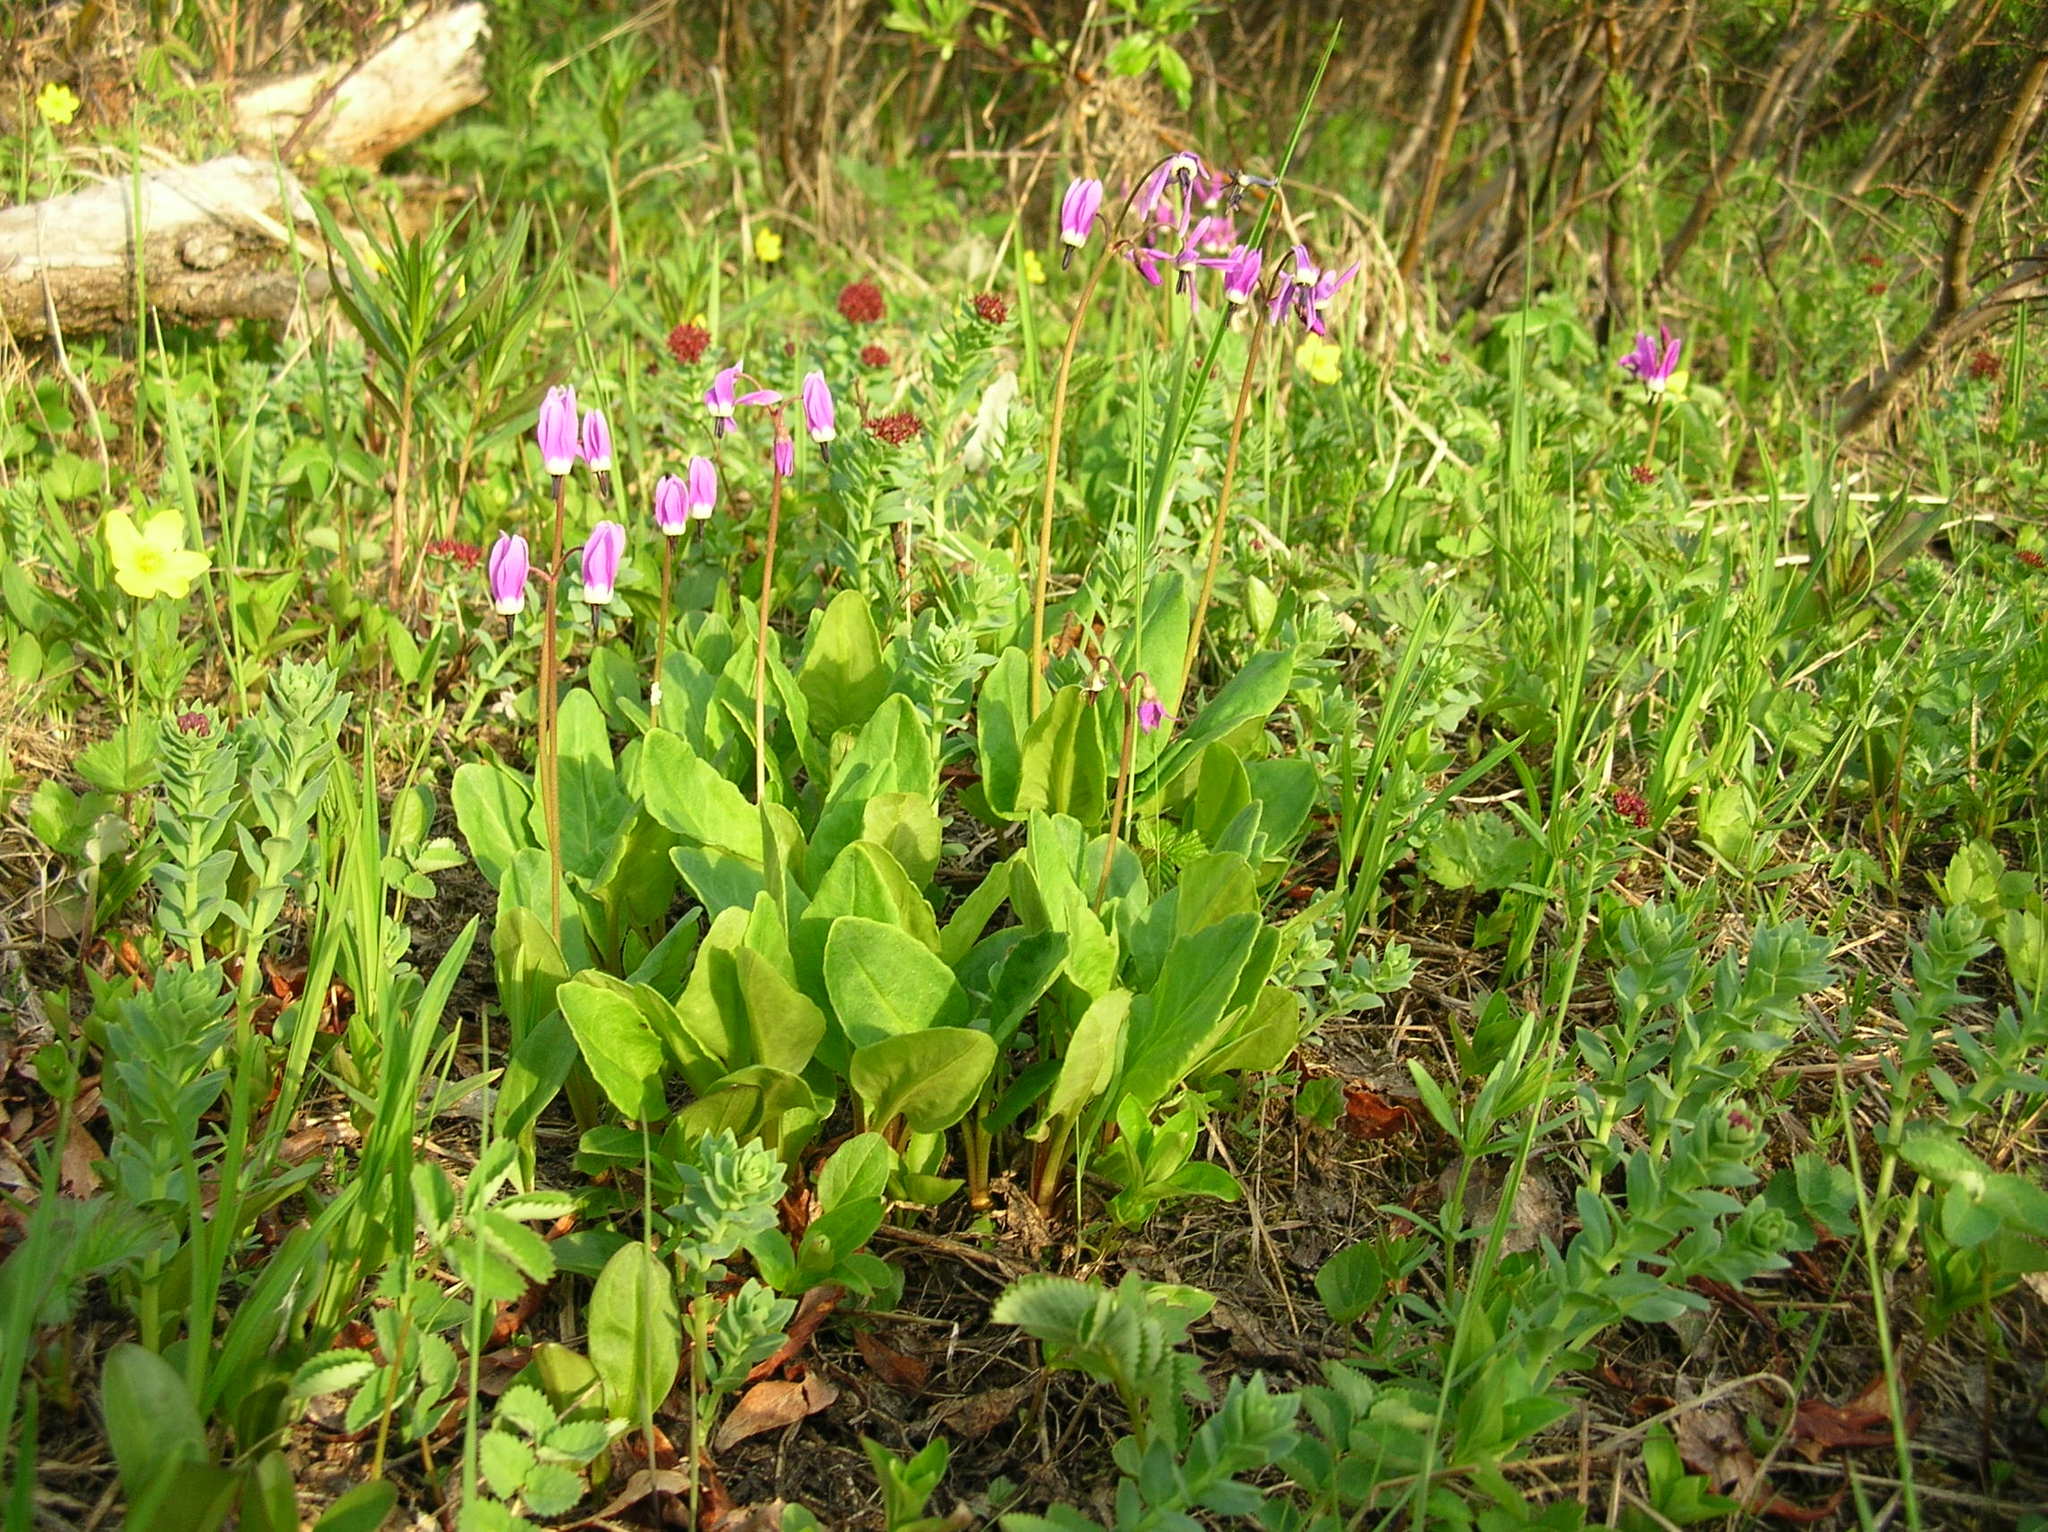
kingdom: Plantae
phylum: Tracheophyta
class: Magnoliopsida
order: Ericales
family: Primulaceae
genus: Dodecatheon
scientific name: Dodecatheon jeffreyanum
